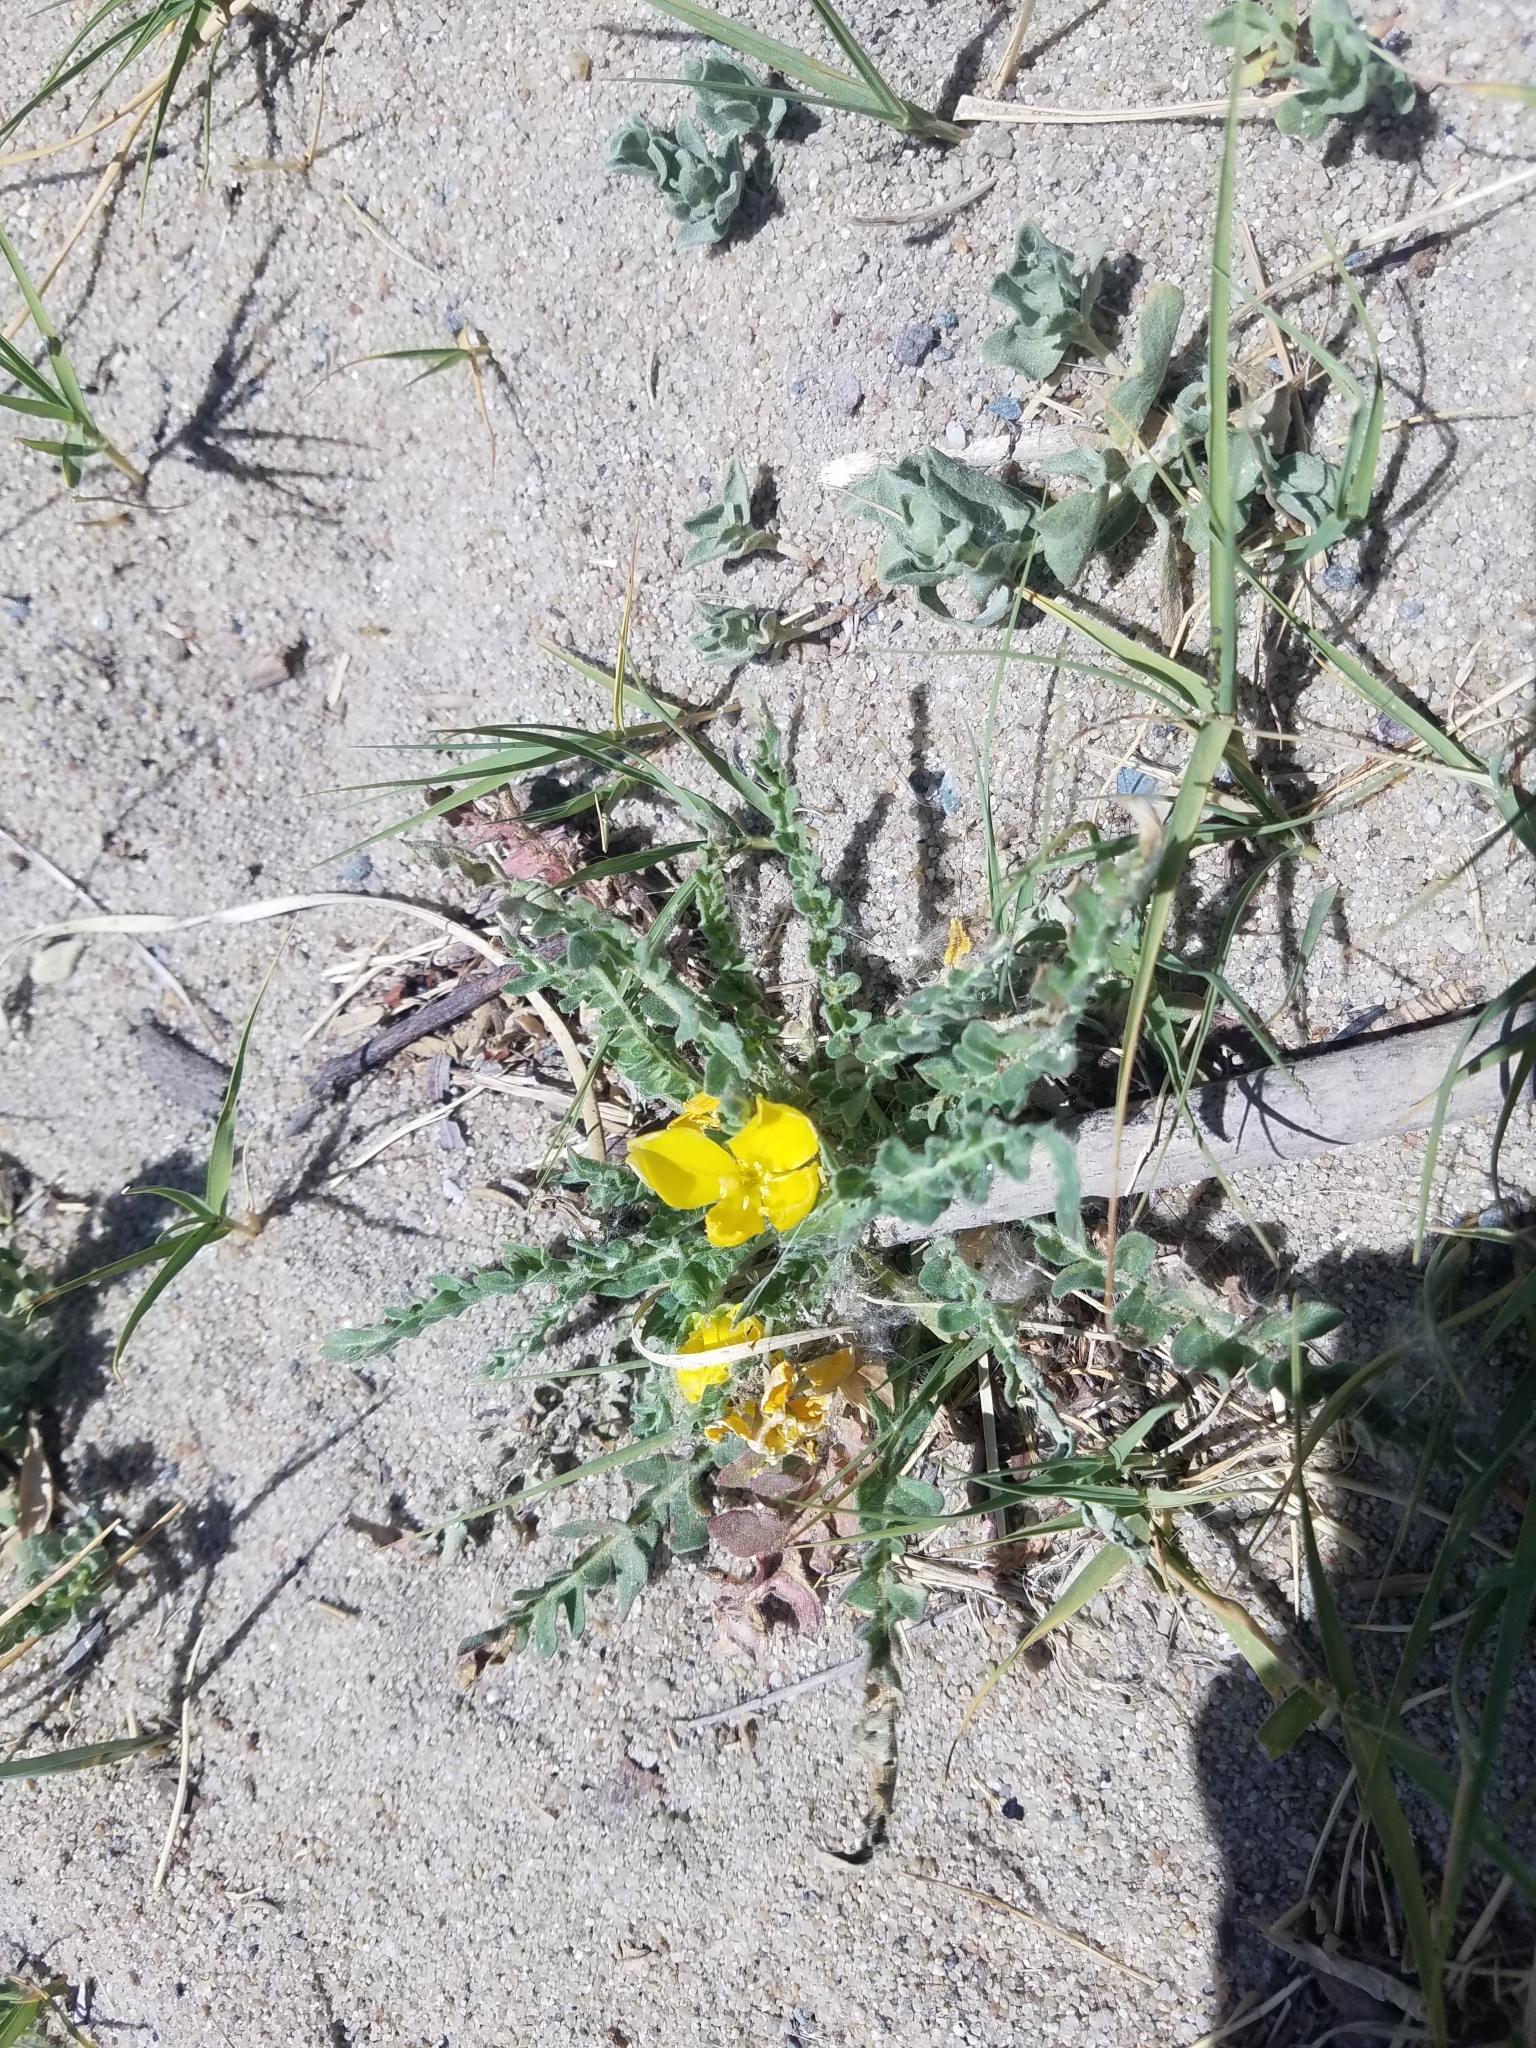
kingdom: Plantae
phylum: Tracheophyta
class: Magnoliopsida
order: Myrtales
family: Onagraceae
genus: Taraxia
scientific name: Taraxia tanacetifolia
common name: Tansyleaf evening primrose
